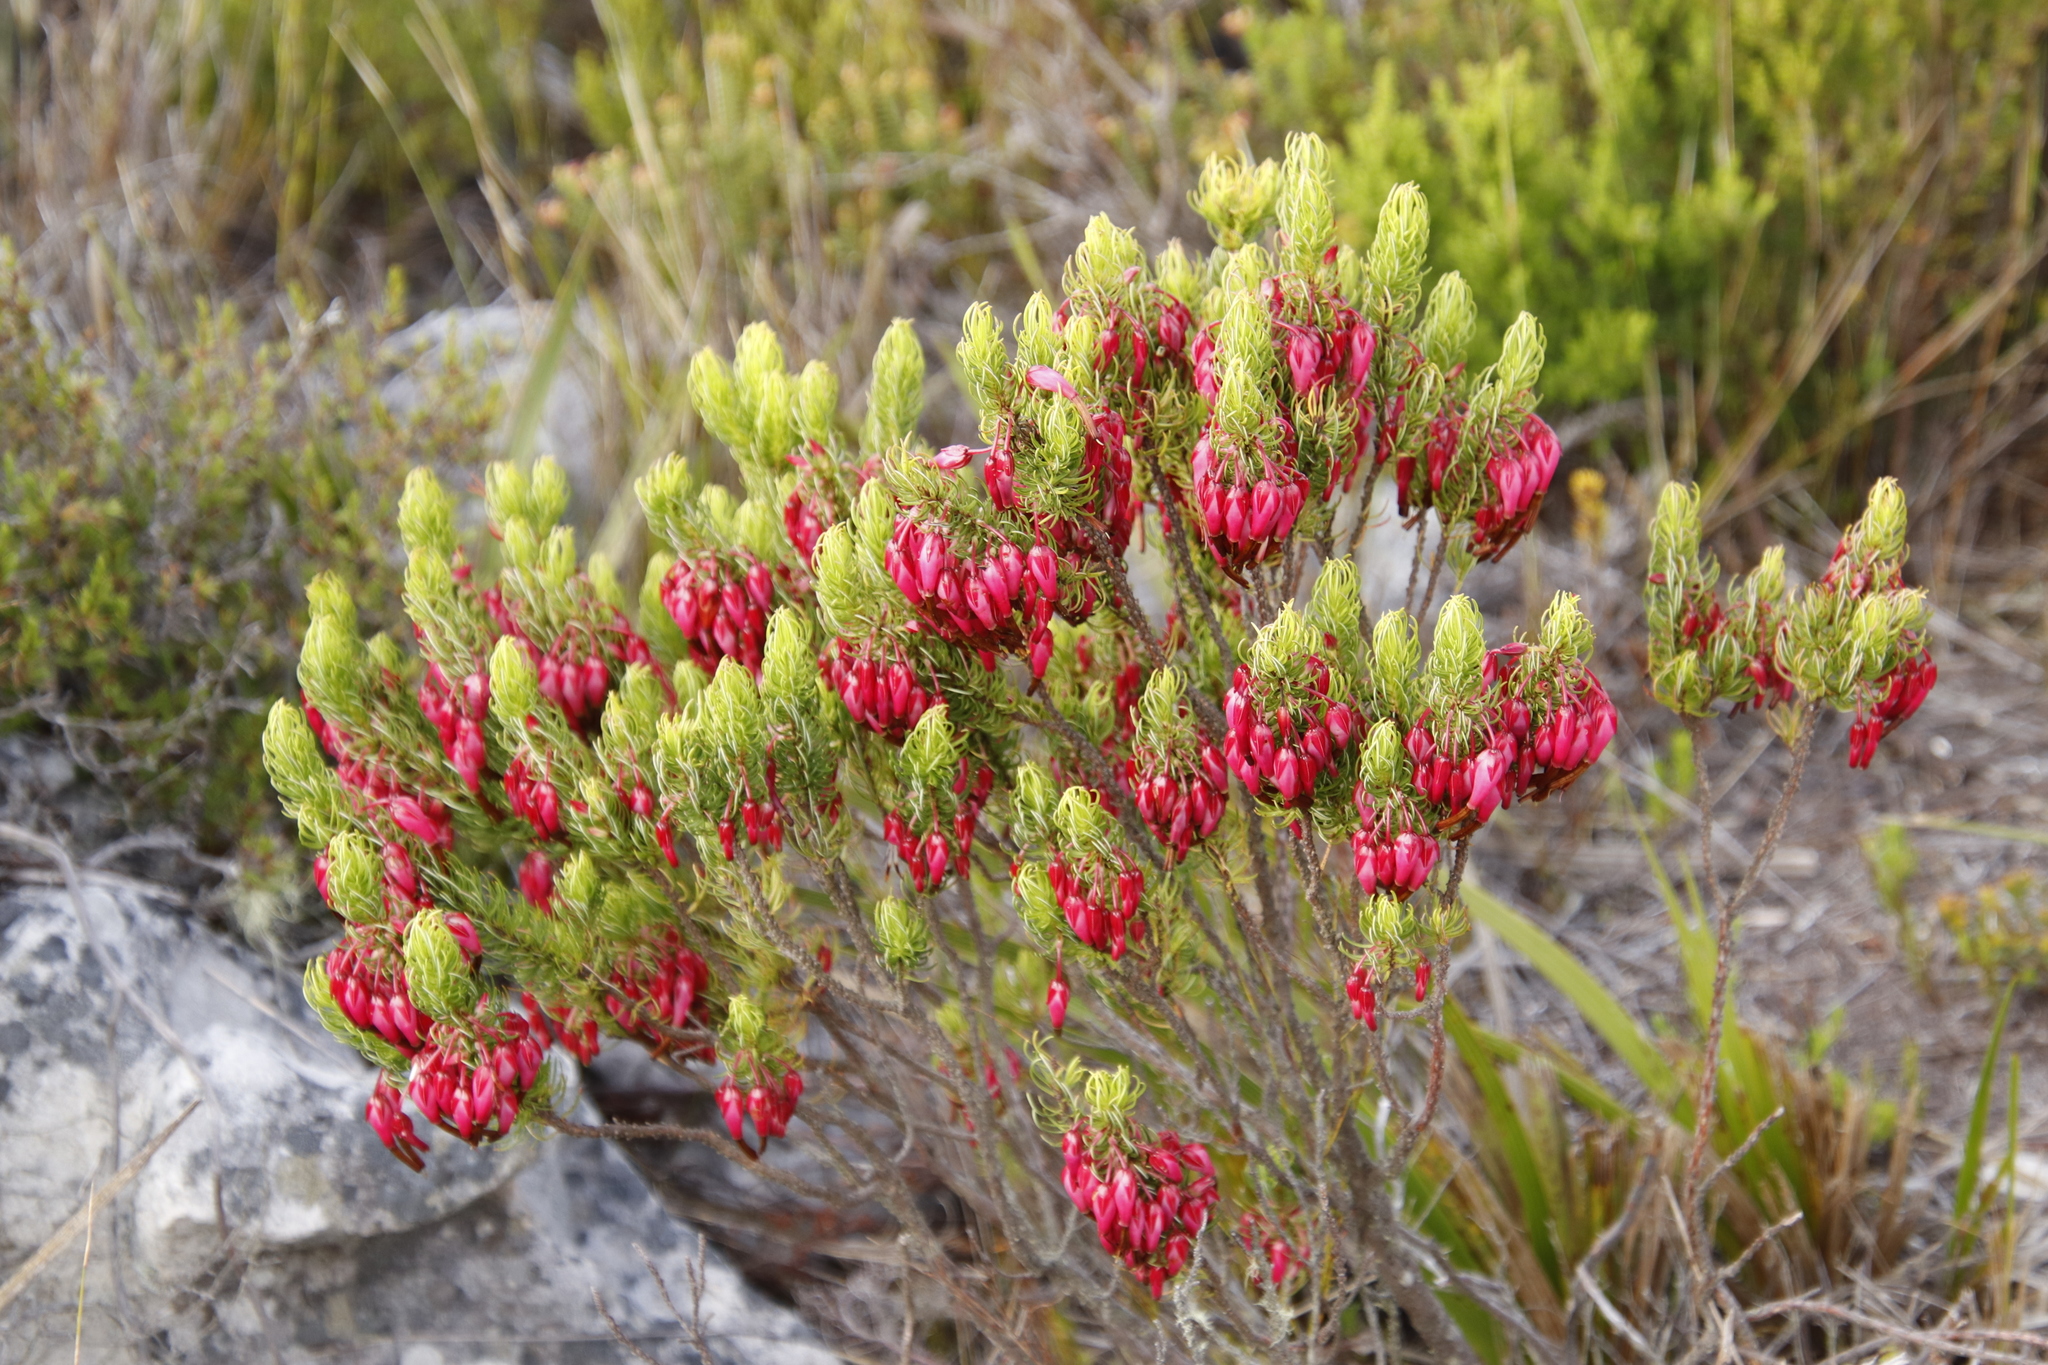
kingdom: Plantae
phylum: Tracheophyta
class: Magnoliopsida
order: Ericales
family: Ericaceae
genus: Erica
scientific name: Erica plukenetii
